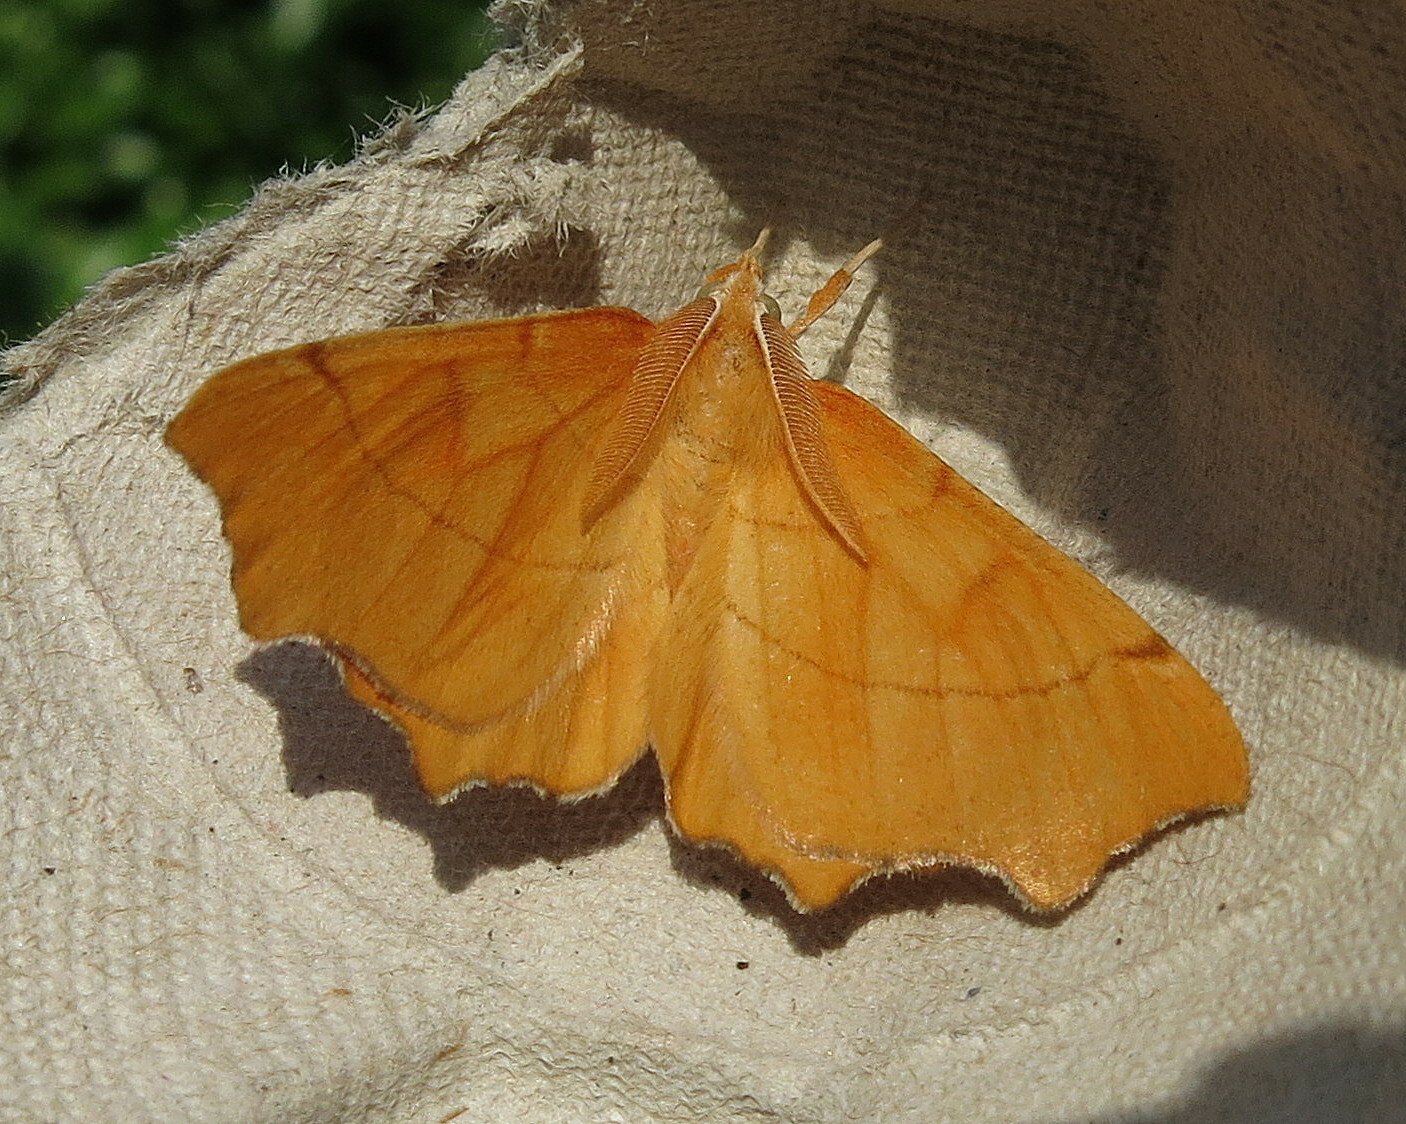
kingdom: Animalia
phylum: Arthropoda
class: Insecta
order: Lepidoptera
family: Geometridae
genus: Ennomos
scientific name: Ennomos quercinaria
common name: August thorn
